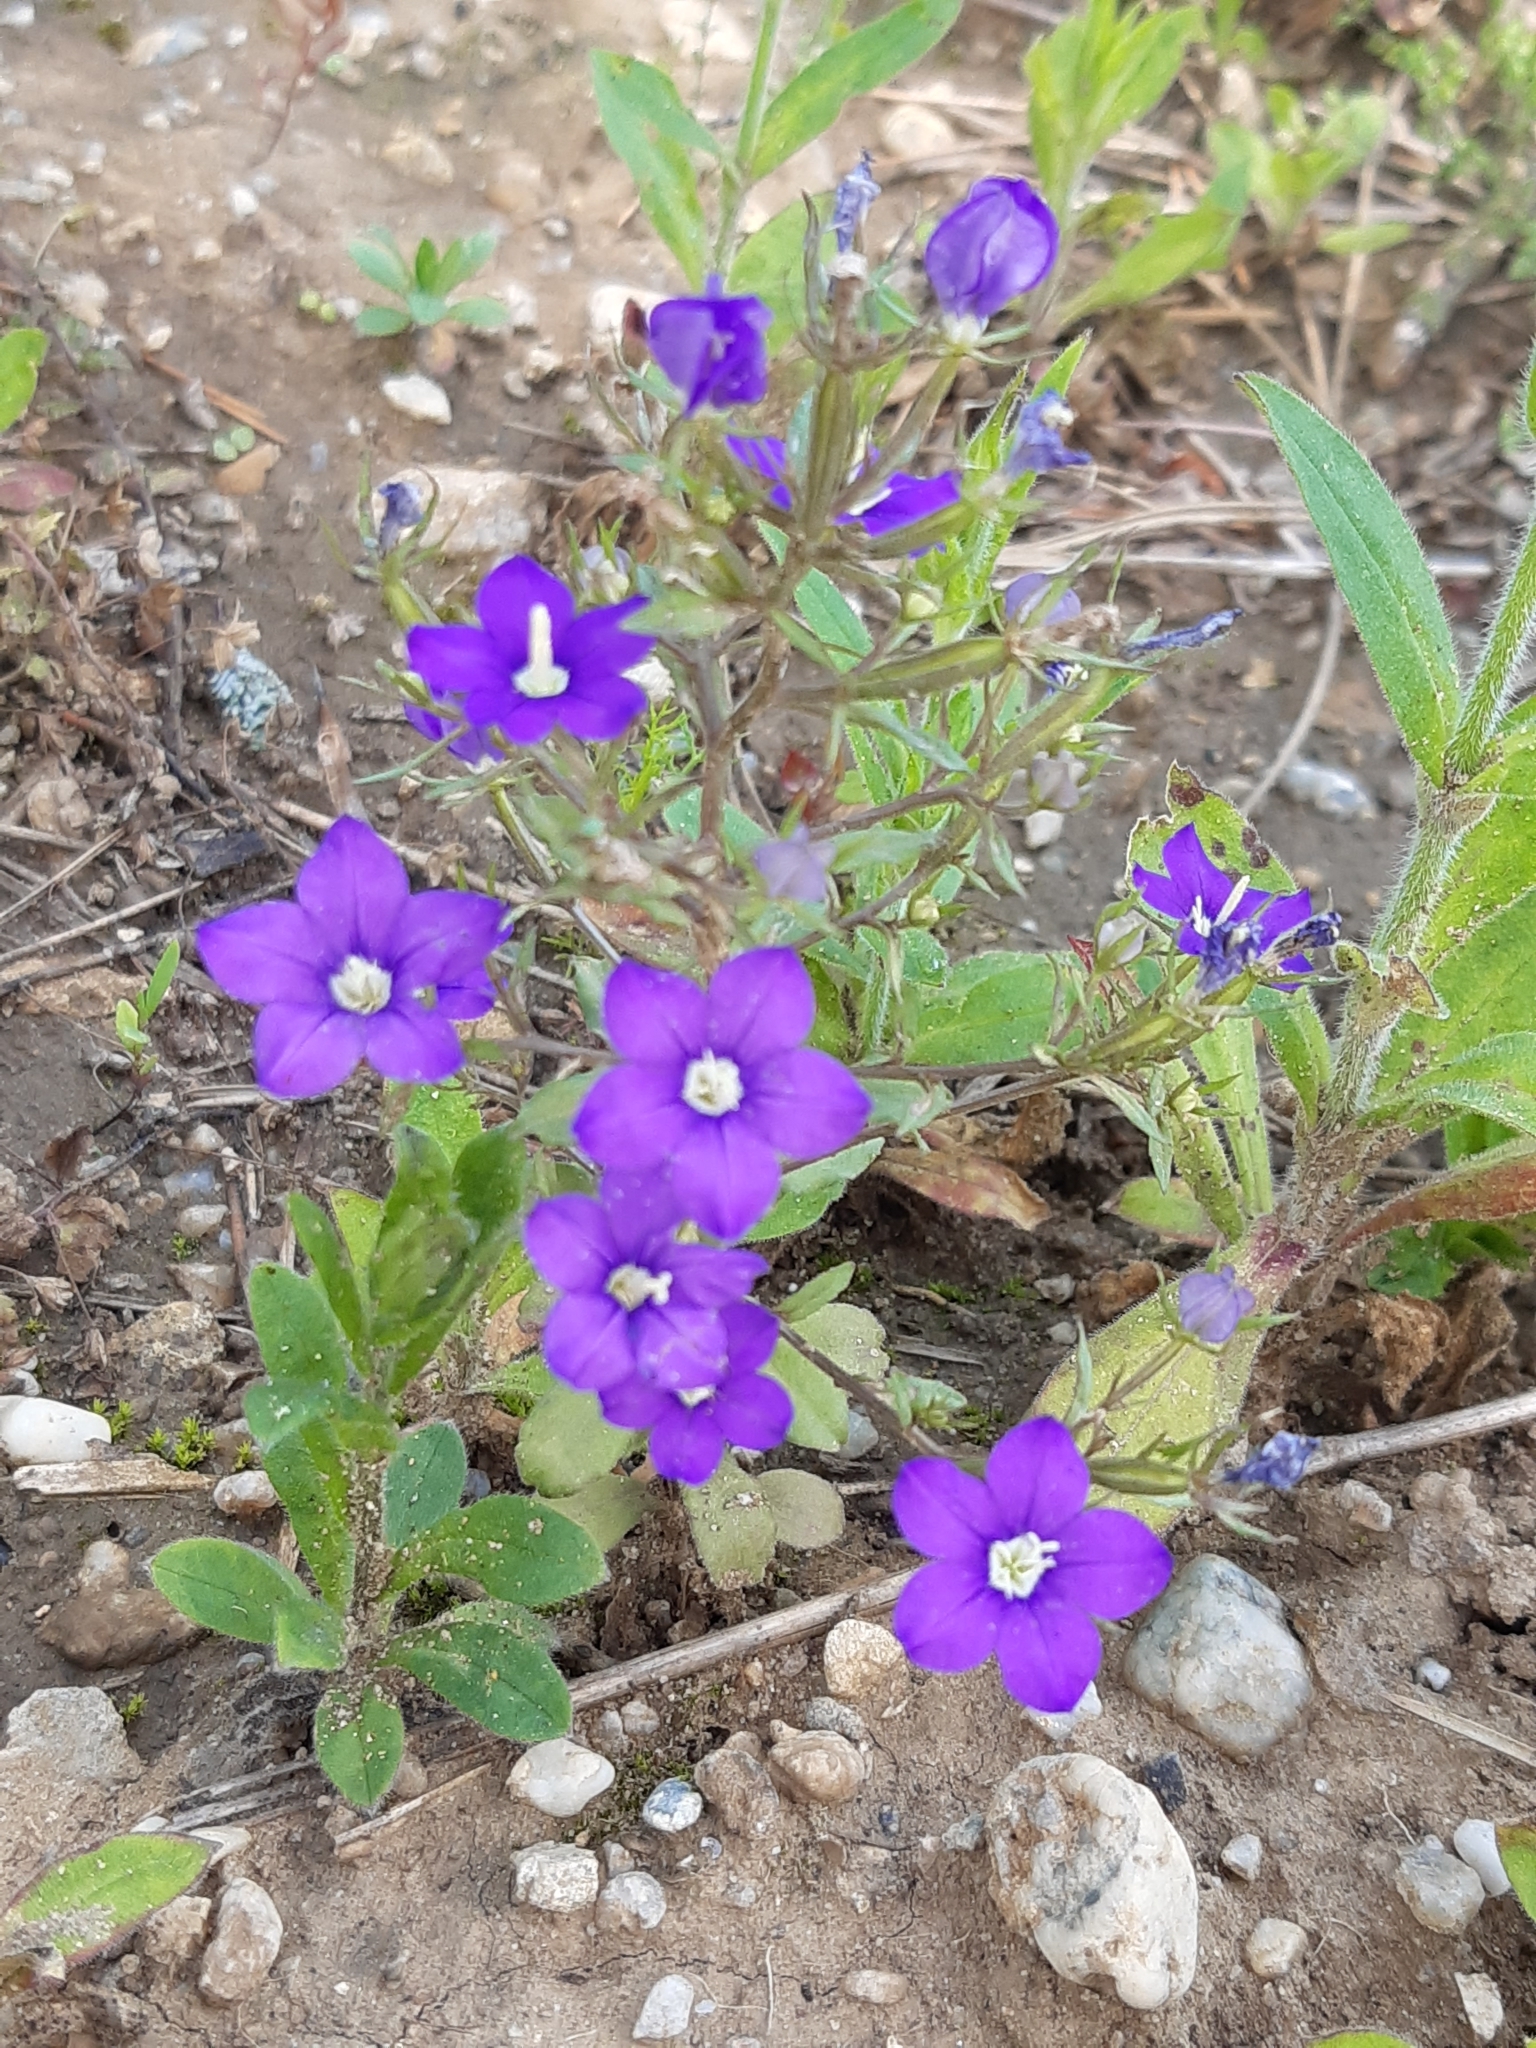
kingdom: Plantae
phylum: Tracheophyta
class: Magnoliopsida
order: Asterales
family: Campanulaceae
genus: Legousia
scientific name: Legousia speculum-veneris
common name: Large venus's-looking-glass
